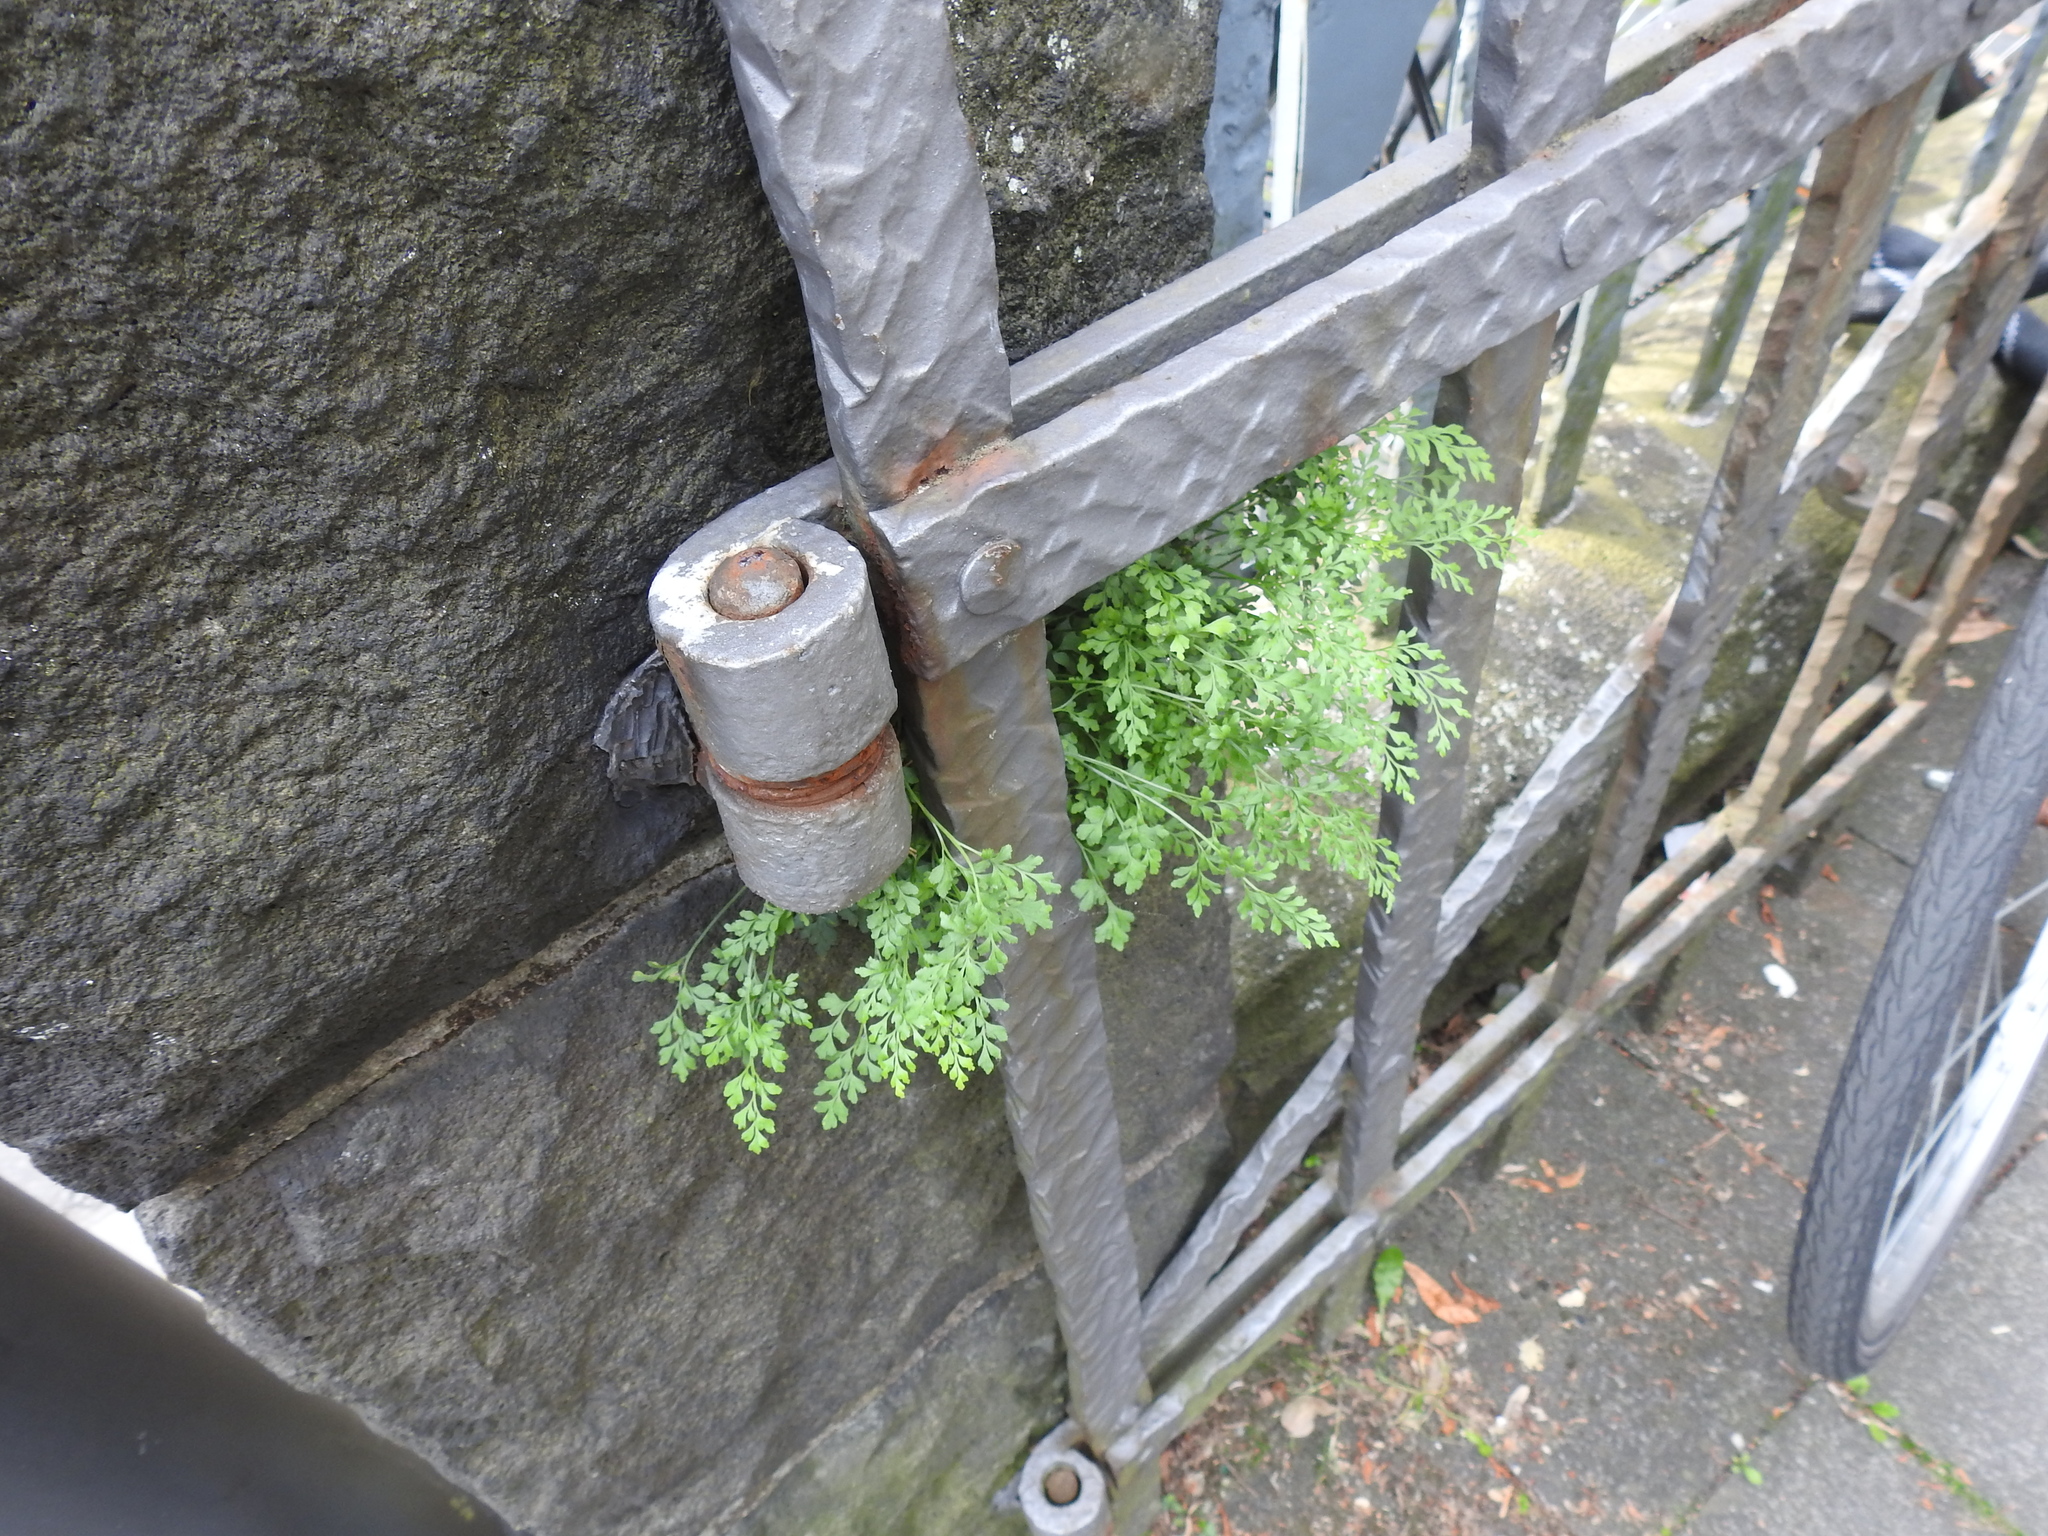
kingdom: Plantae
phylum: Tracheophyta
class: Polypodiopsida
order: Polypodiales
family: Aspleniaceae
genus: Asplenium
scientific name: Asplenium ruta-muraria
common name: Wall-rue
